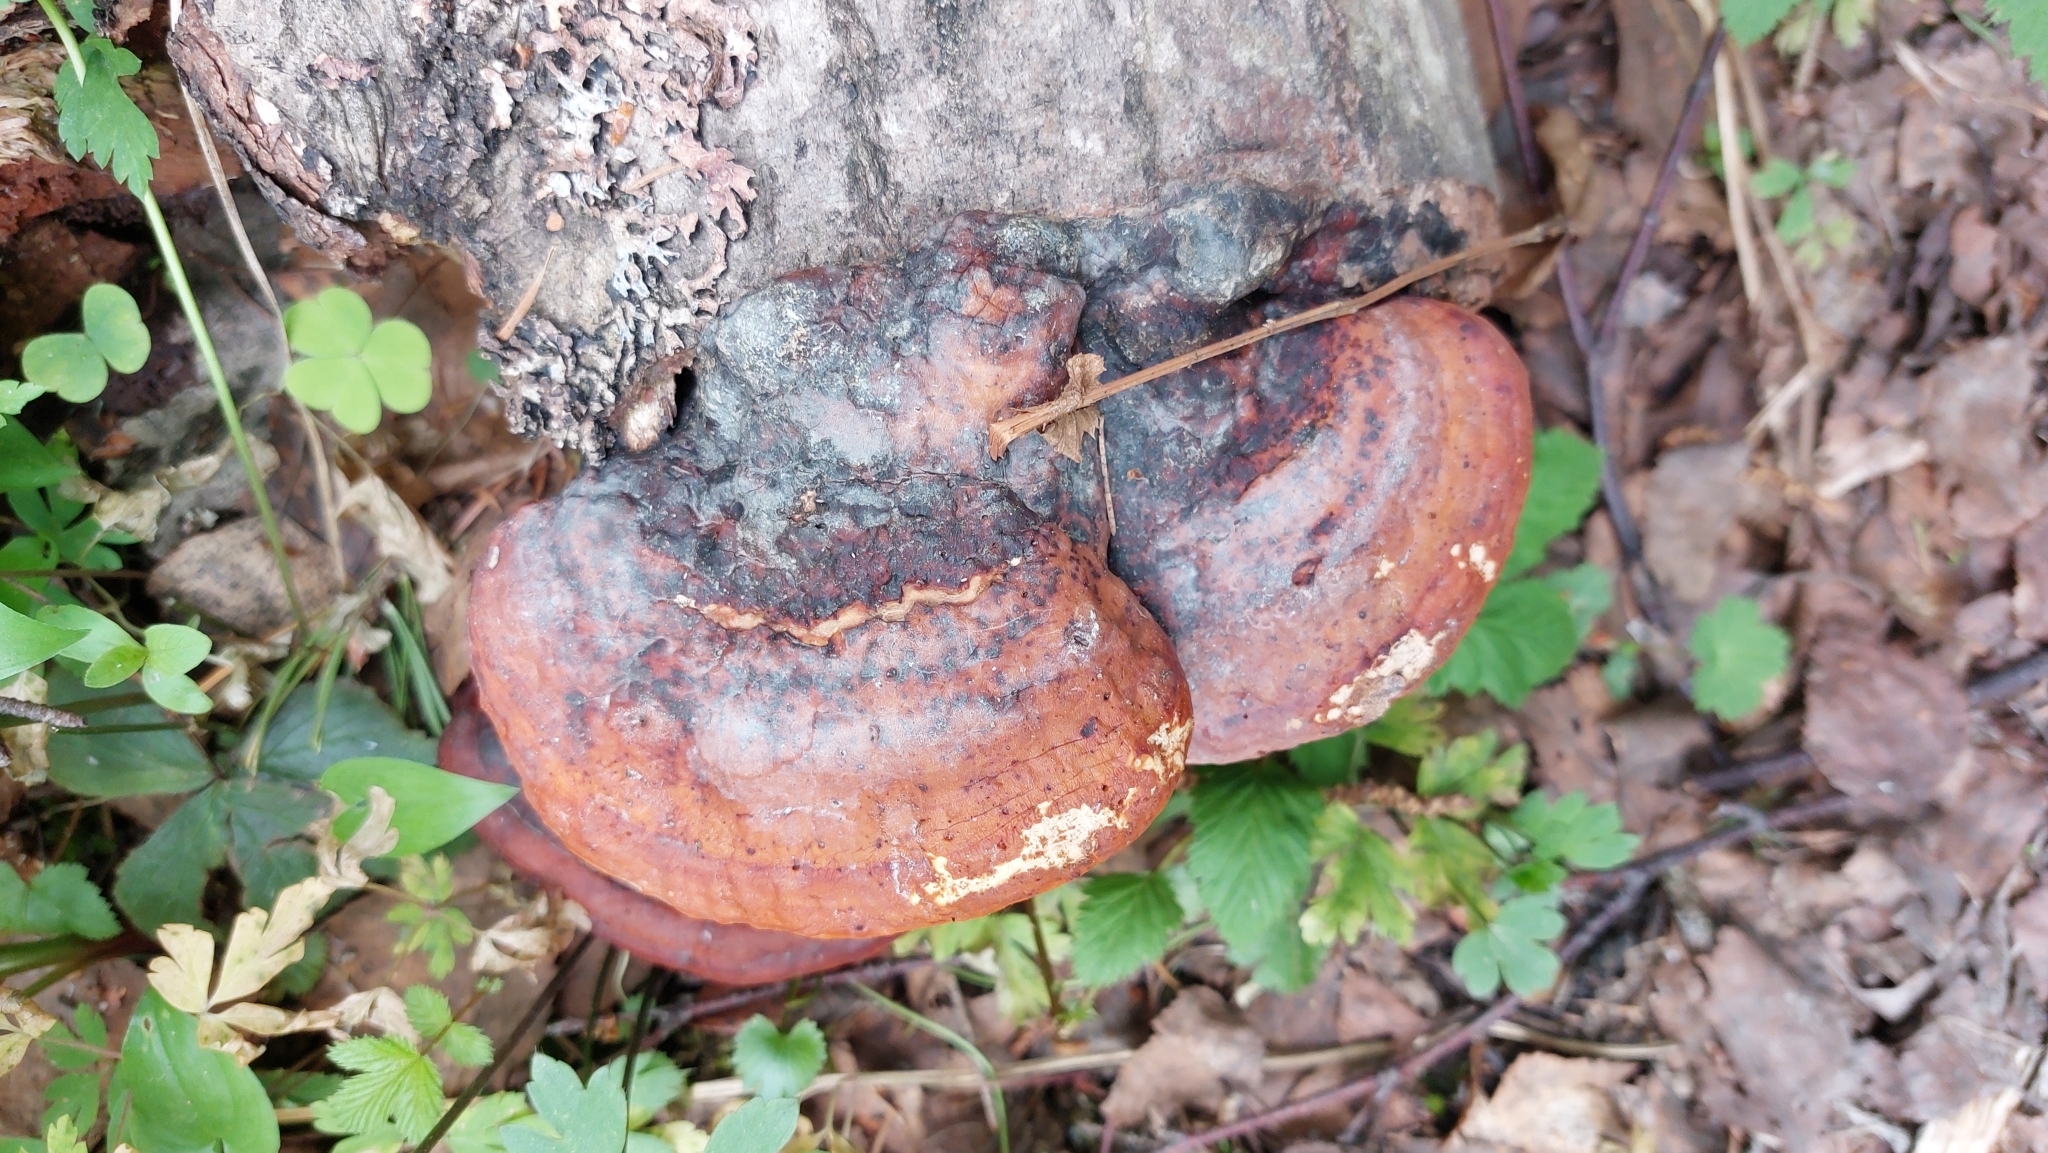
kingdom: Fungi
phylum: Basidiomycota
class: Agaricomycetes
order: Polyporales
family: Fomitopsidaceae
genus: Fomitopsis
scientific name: Fomitopsis pinicola
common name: Red-belted bracket
